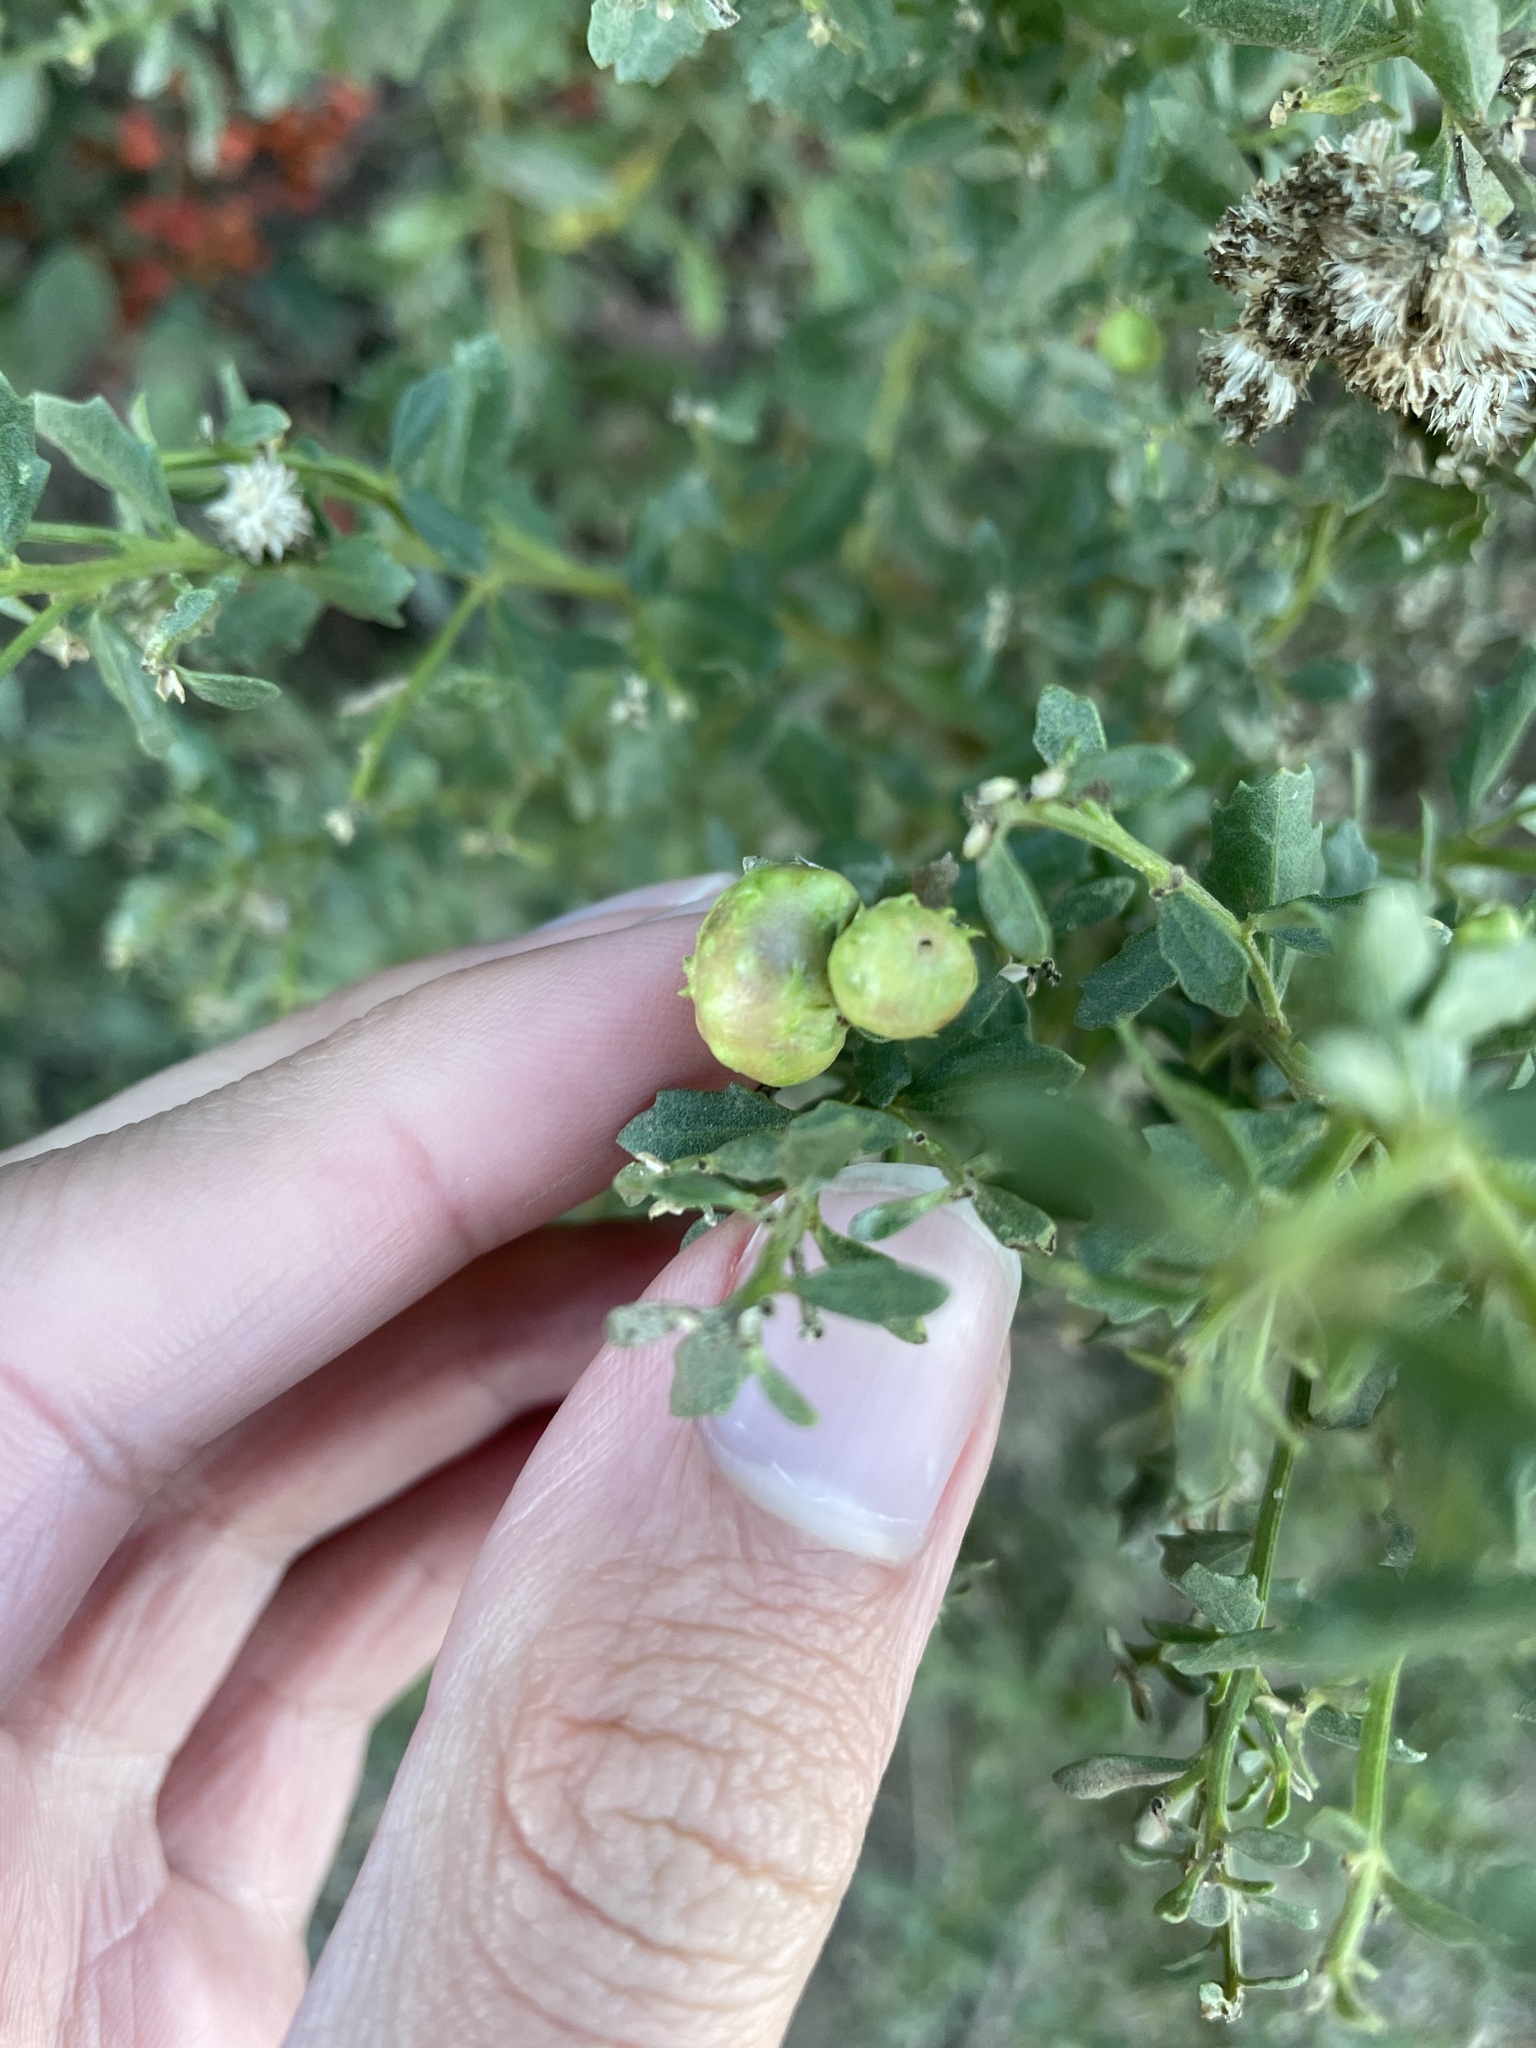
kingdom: Animalia
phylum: Arthropoda
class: Insecta
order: Diptera
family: Cecidomyiidae
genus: Rhopalomyia
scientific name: Rhopalomyia californica
